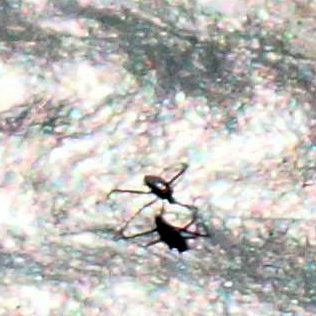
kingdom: Animalia
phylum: Arthropoda
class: Insecta
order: Hemiptera
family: Mesoveliidae
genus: Mesovelia
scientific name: Mesovelia
